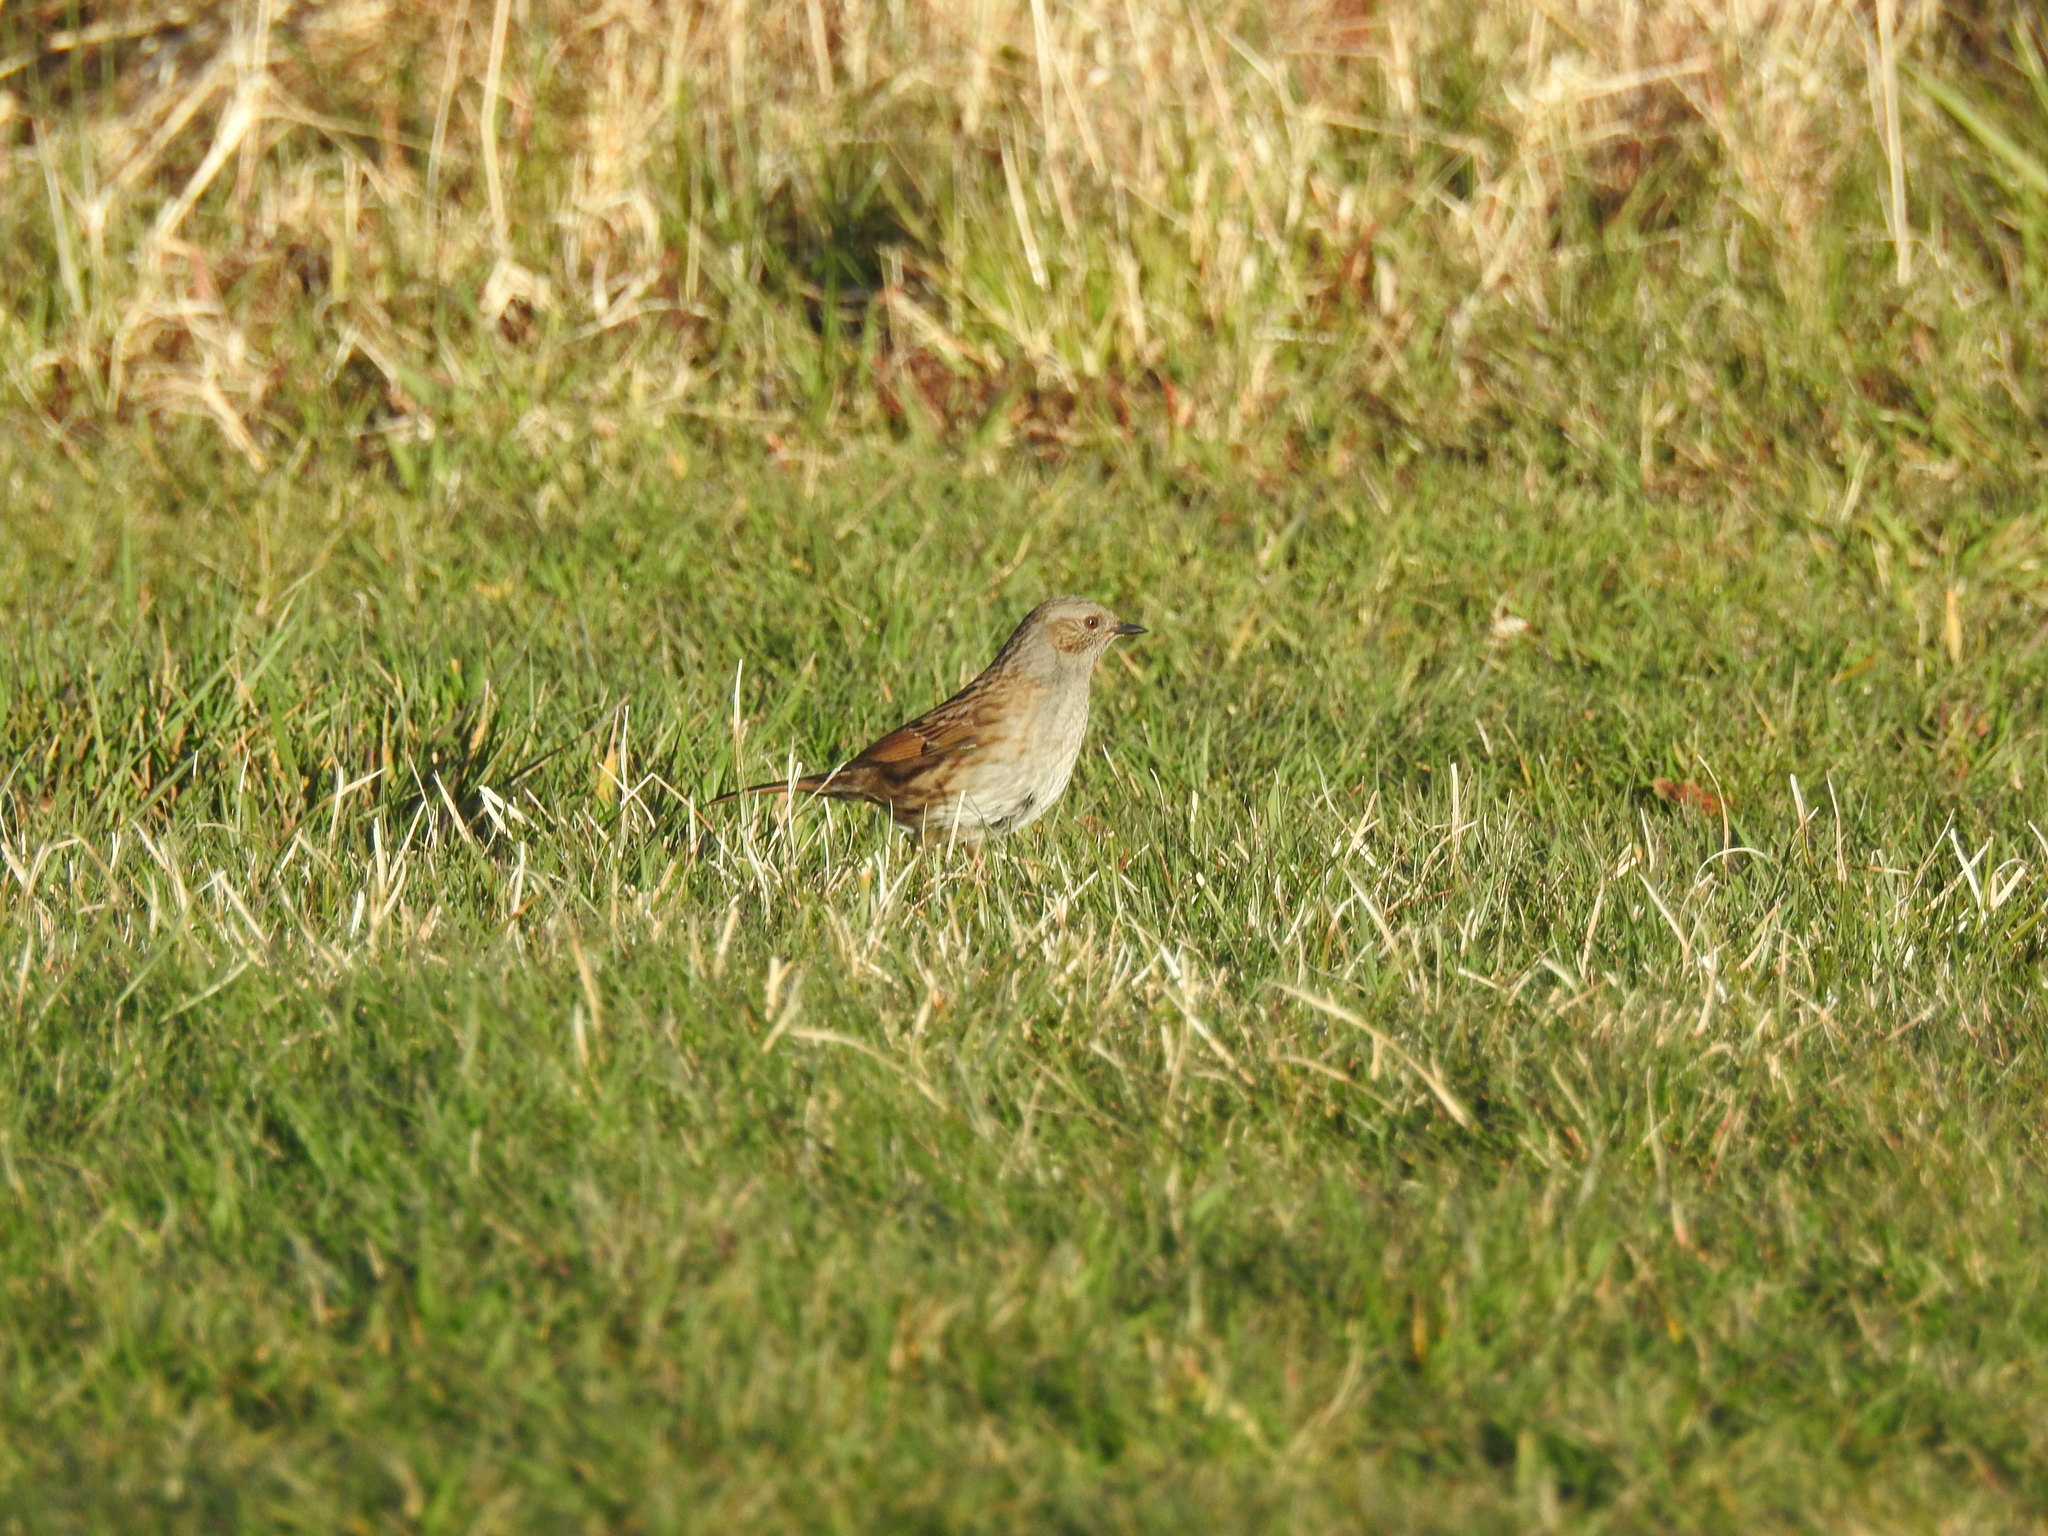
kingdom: Animalia
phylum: Chordata
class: Aves
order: Passeriformes
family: Prunellidae
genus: Prunella
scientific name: Prunella modularis
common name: Dunnock
